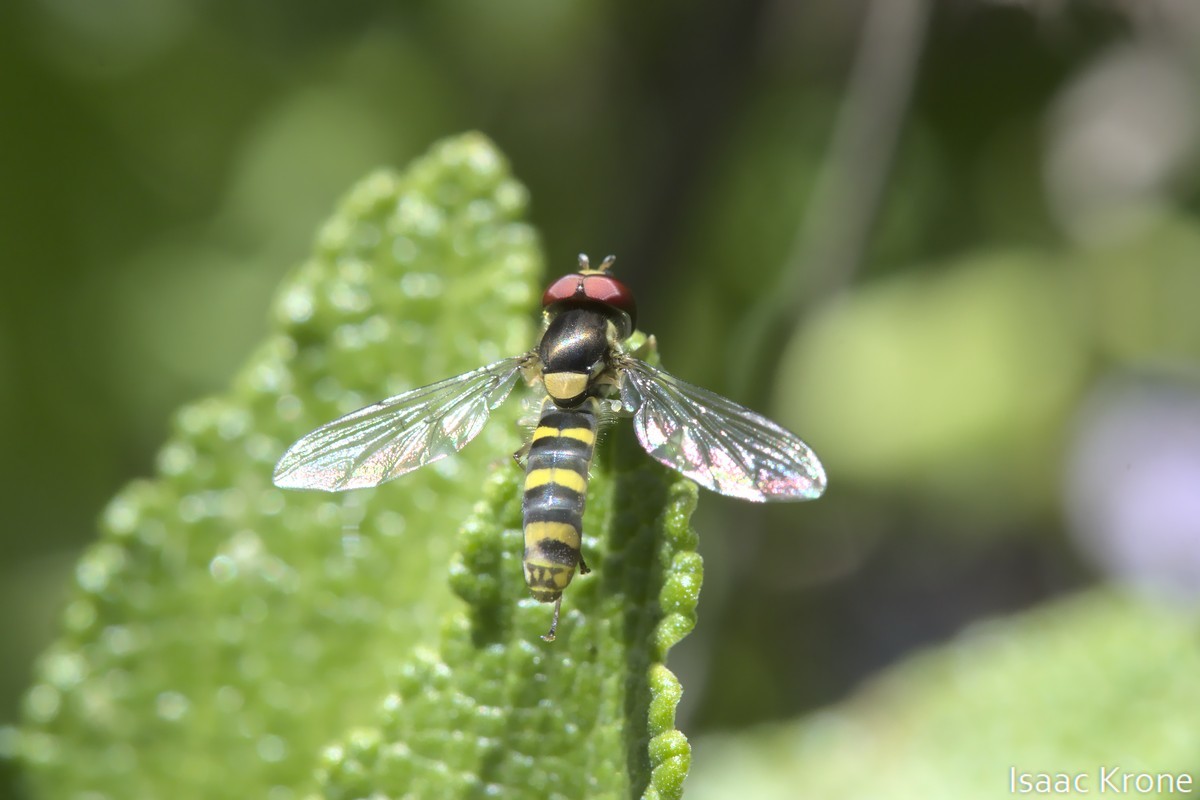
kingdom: Animalia
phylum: Arthropoda
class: Insecta
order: Diptera
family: Syrphidae
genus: Fazia
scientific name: Fazia micrura
